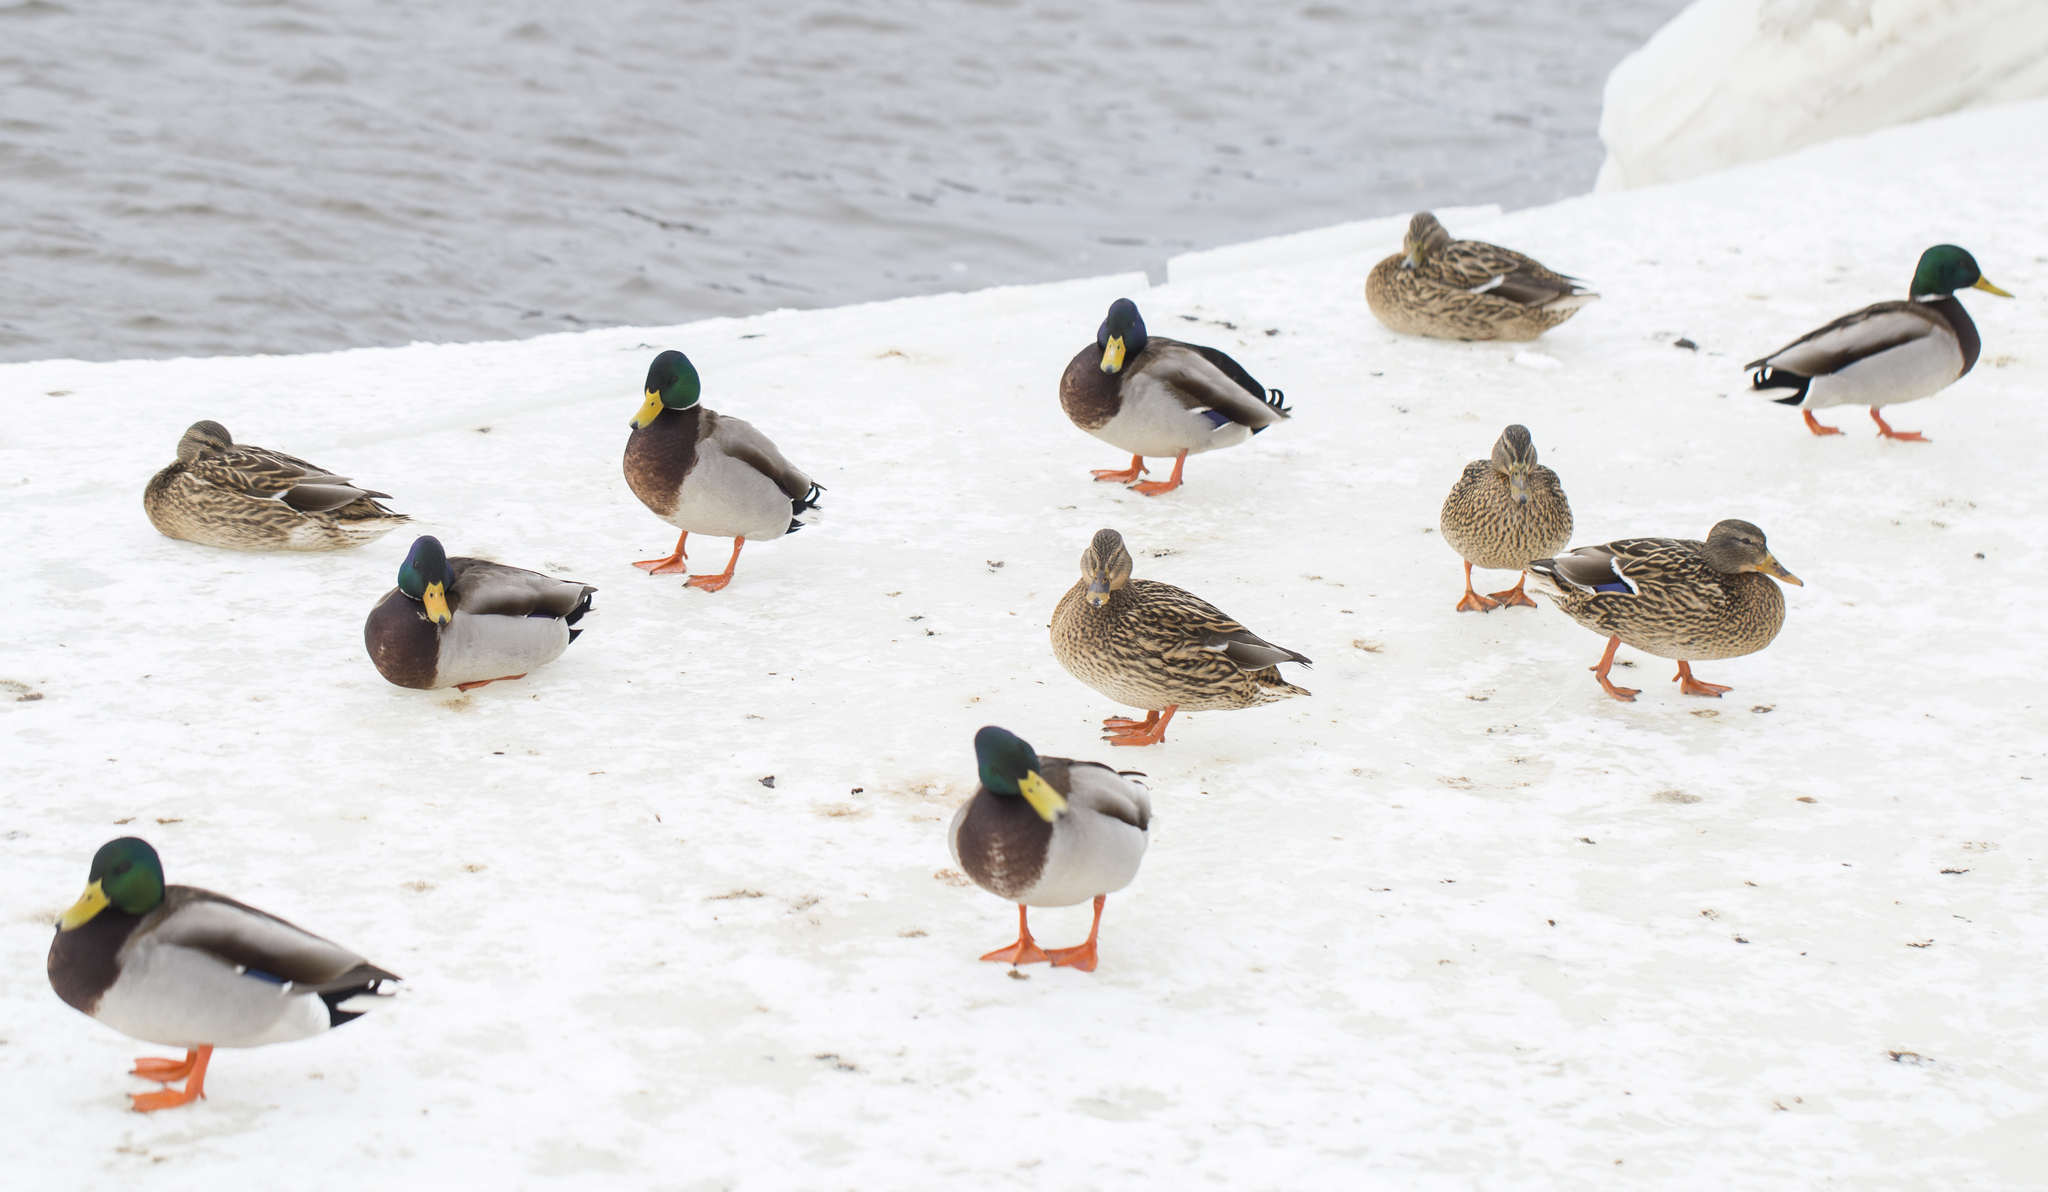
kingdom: Animalia
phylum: Chordata
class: Aves
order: Anseriformes
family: Anatidae
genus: Anas
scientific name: Anas platyrhynchos
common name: Mallard
